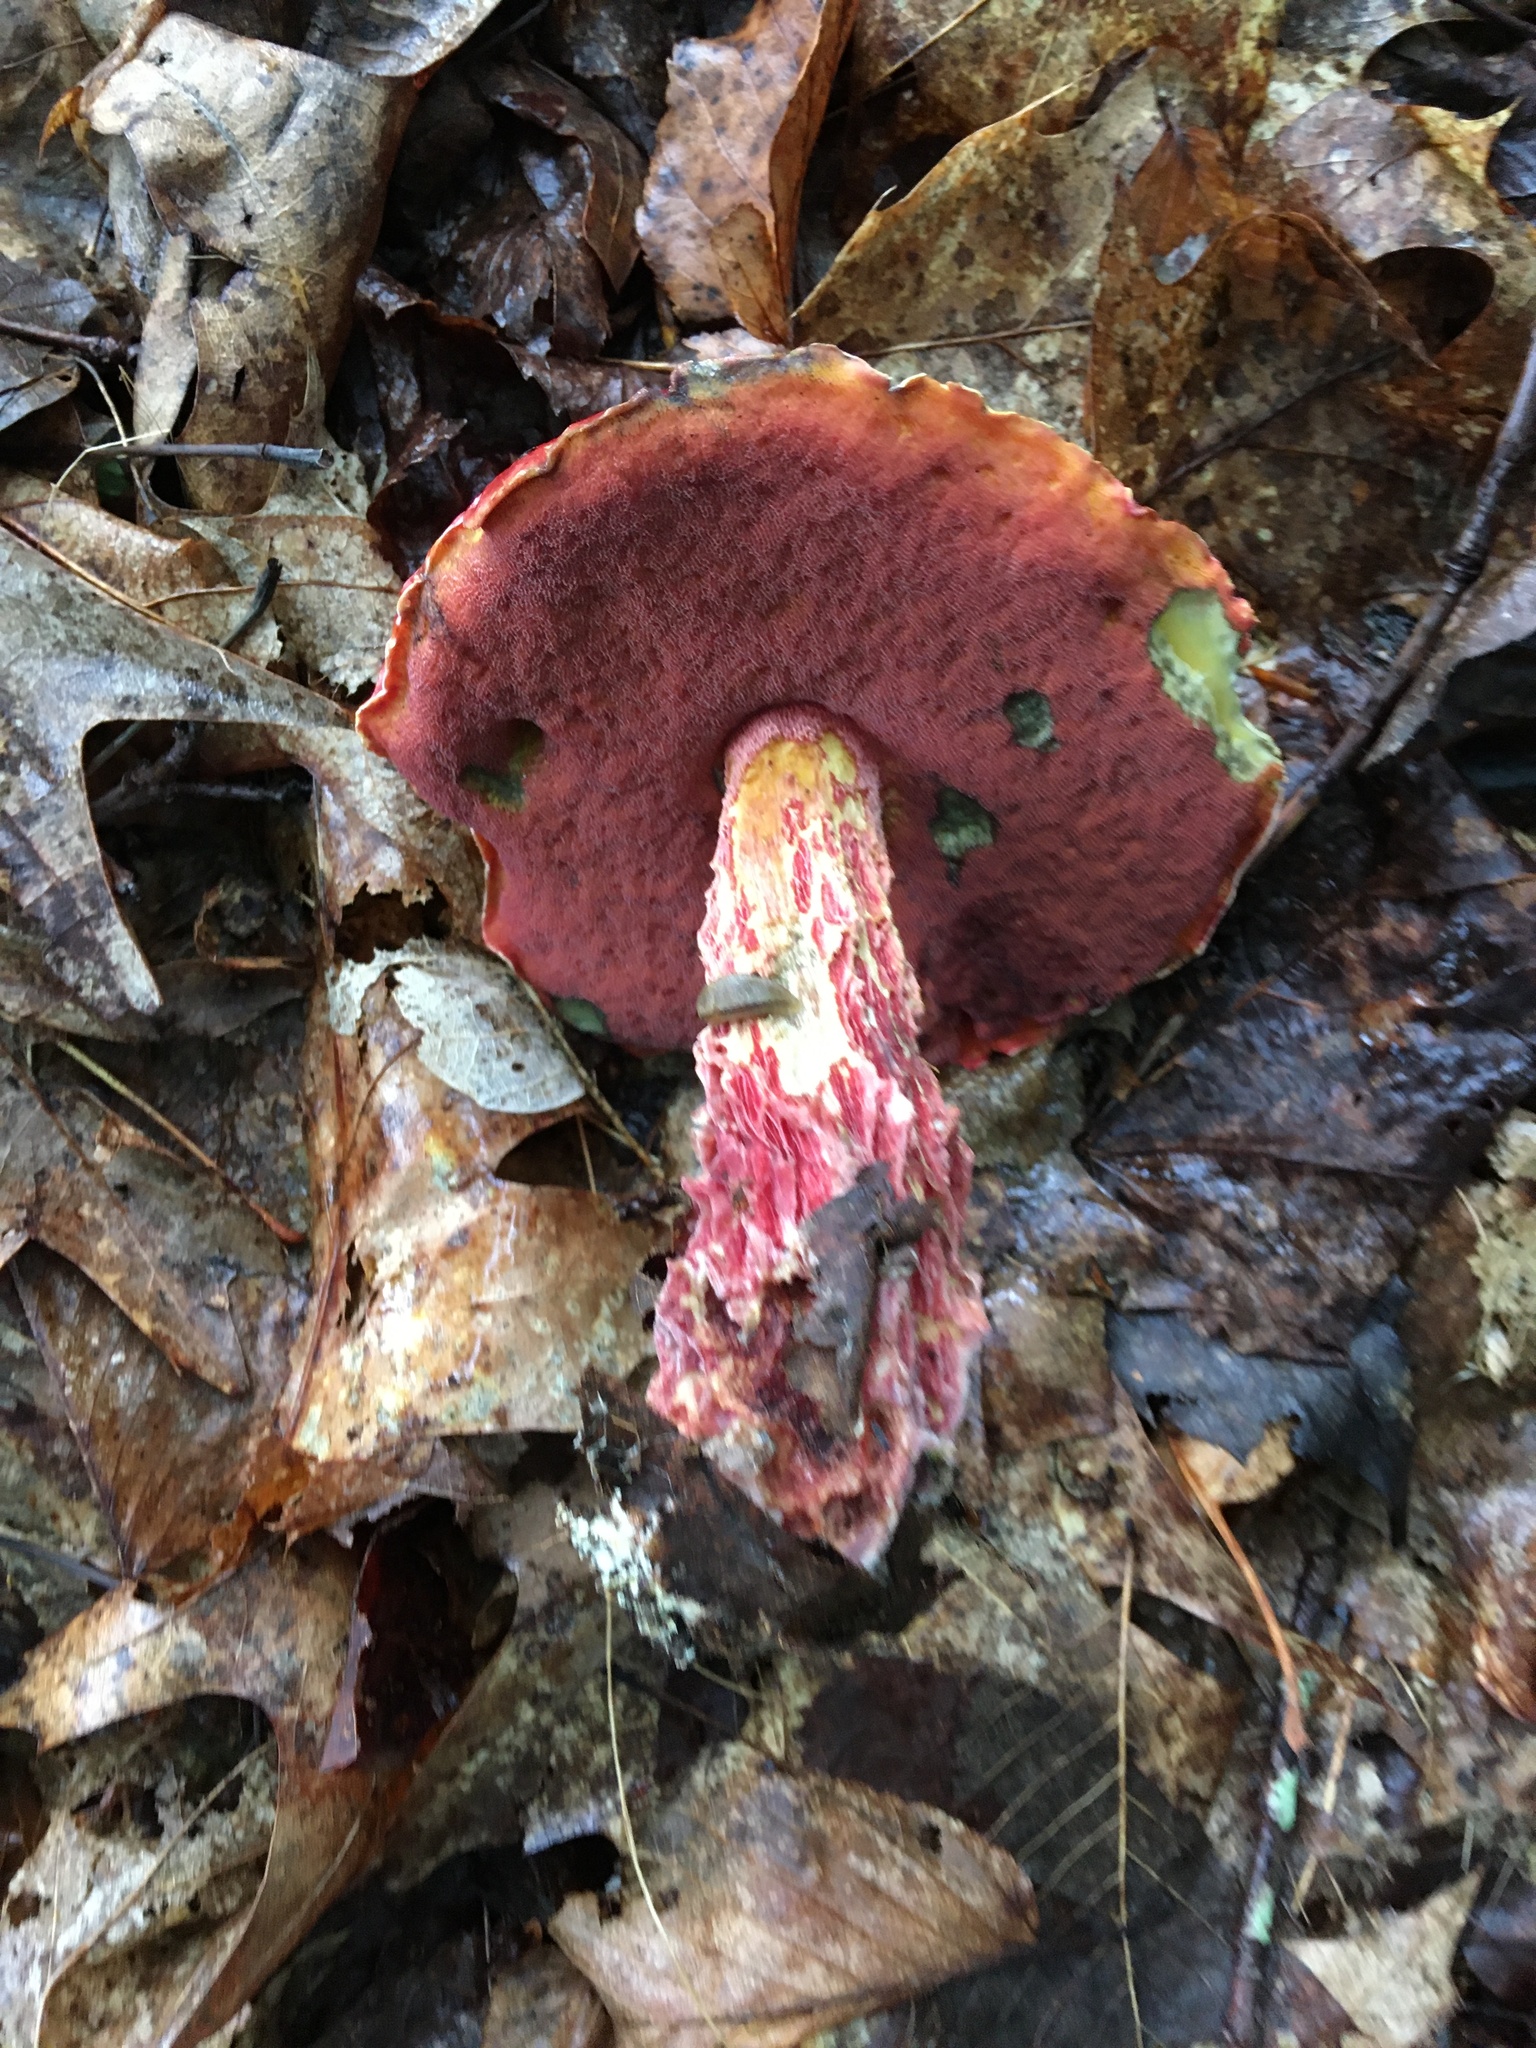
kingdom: Fungi
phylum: Basidiomycota
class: Agaricomycetes
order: Boletales
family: Boletaceae
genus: Butyriboletus
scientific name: Butyriboletus frostii
